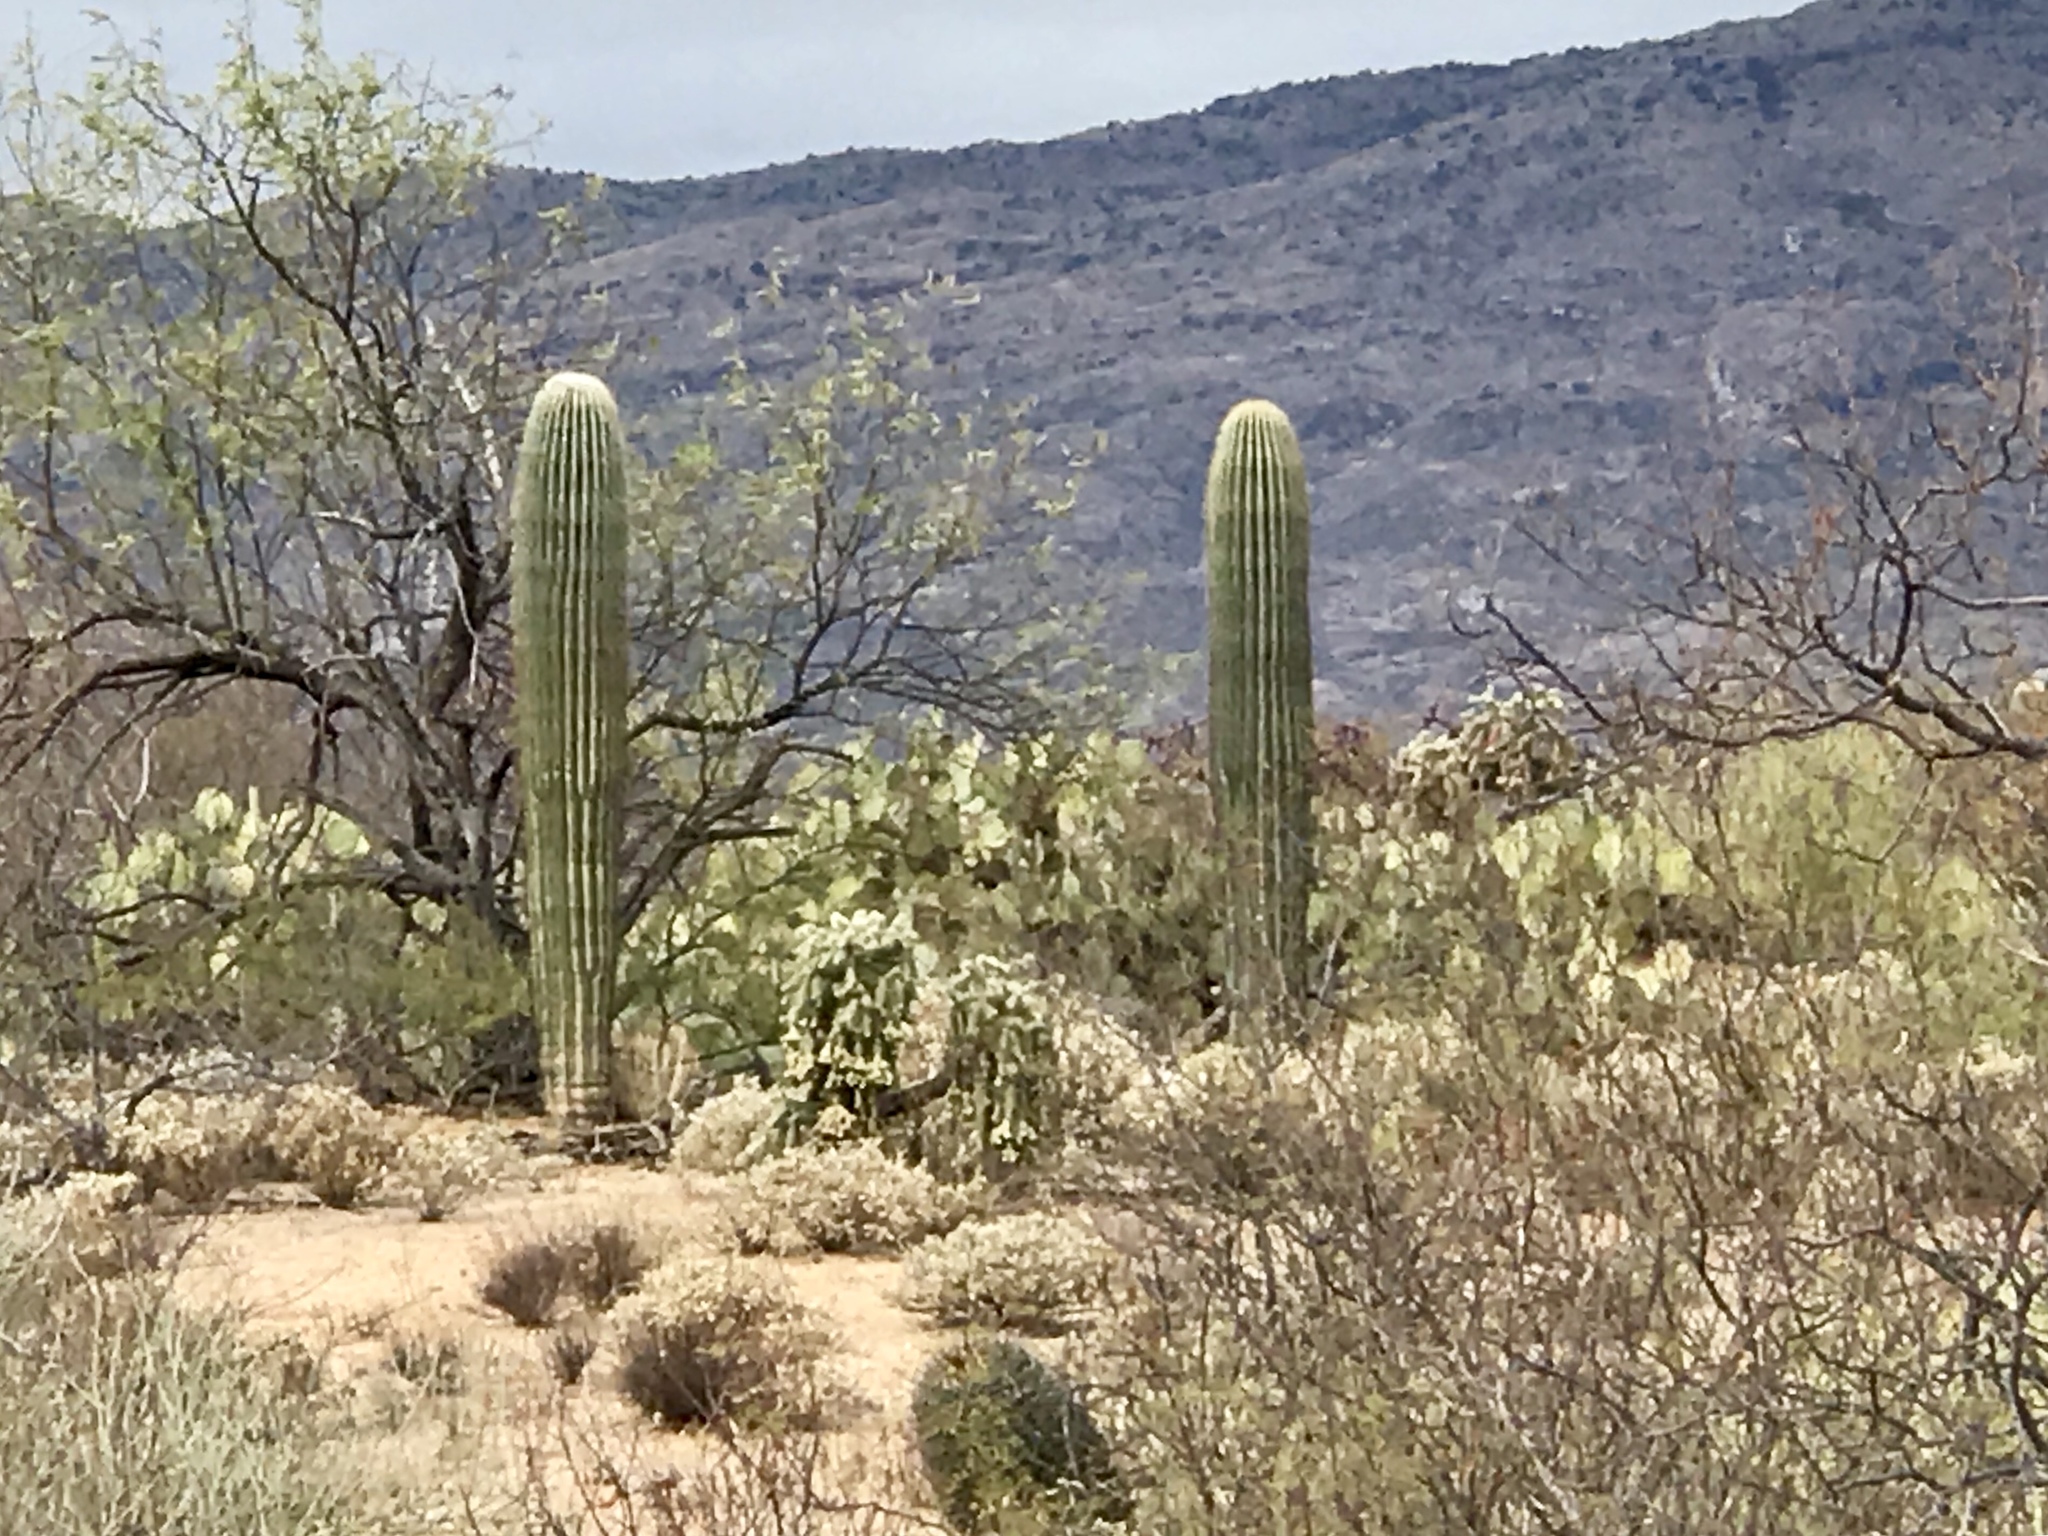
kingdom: Plantae
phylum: Tracheophyta
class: Magnoliopsida
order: Caryophyllales
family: Cactaceae
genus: Carnegiea
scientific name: Carnegiea gigantea
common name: Saguaro
